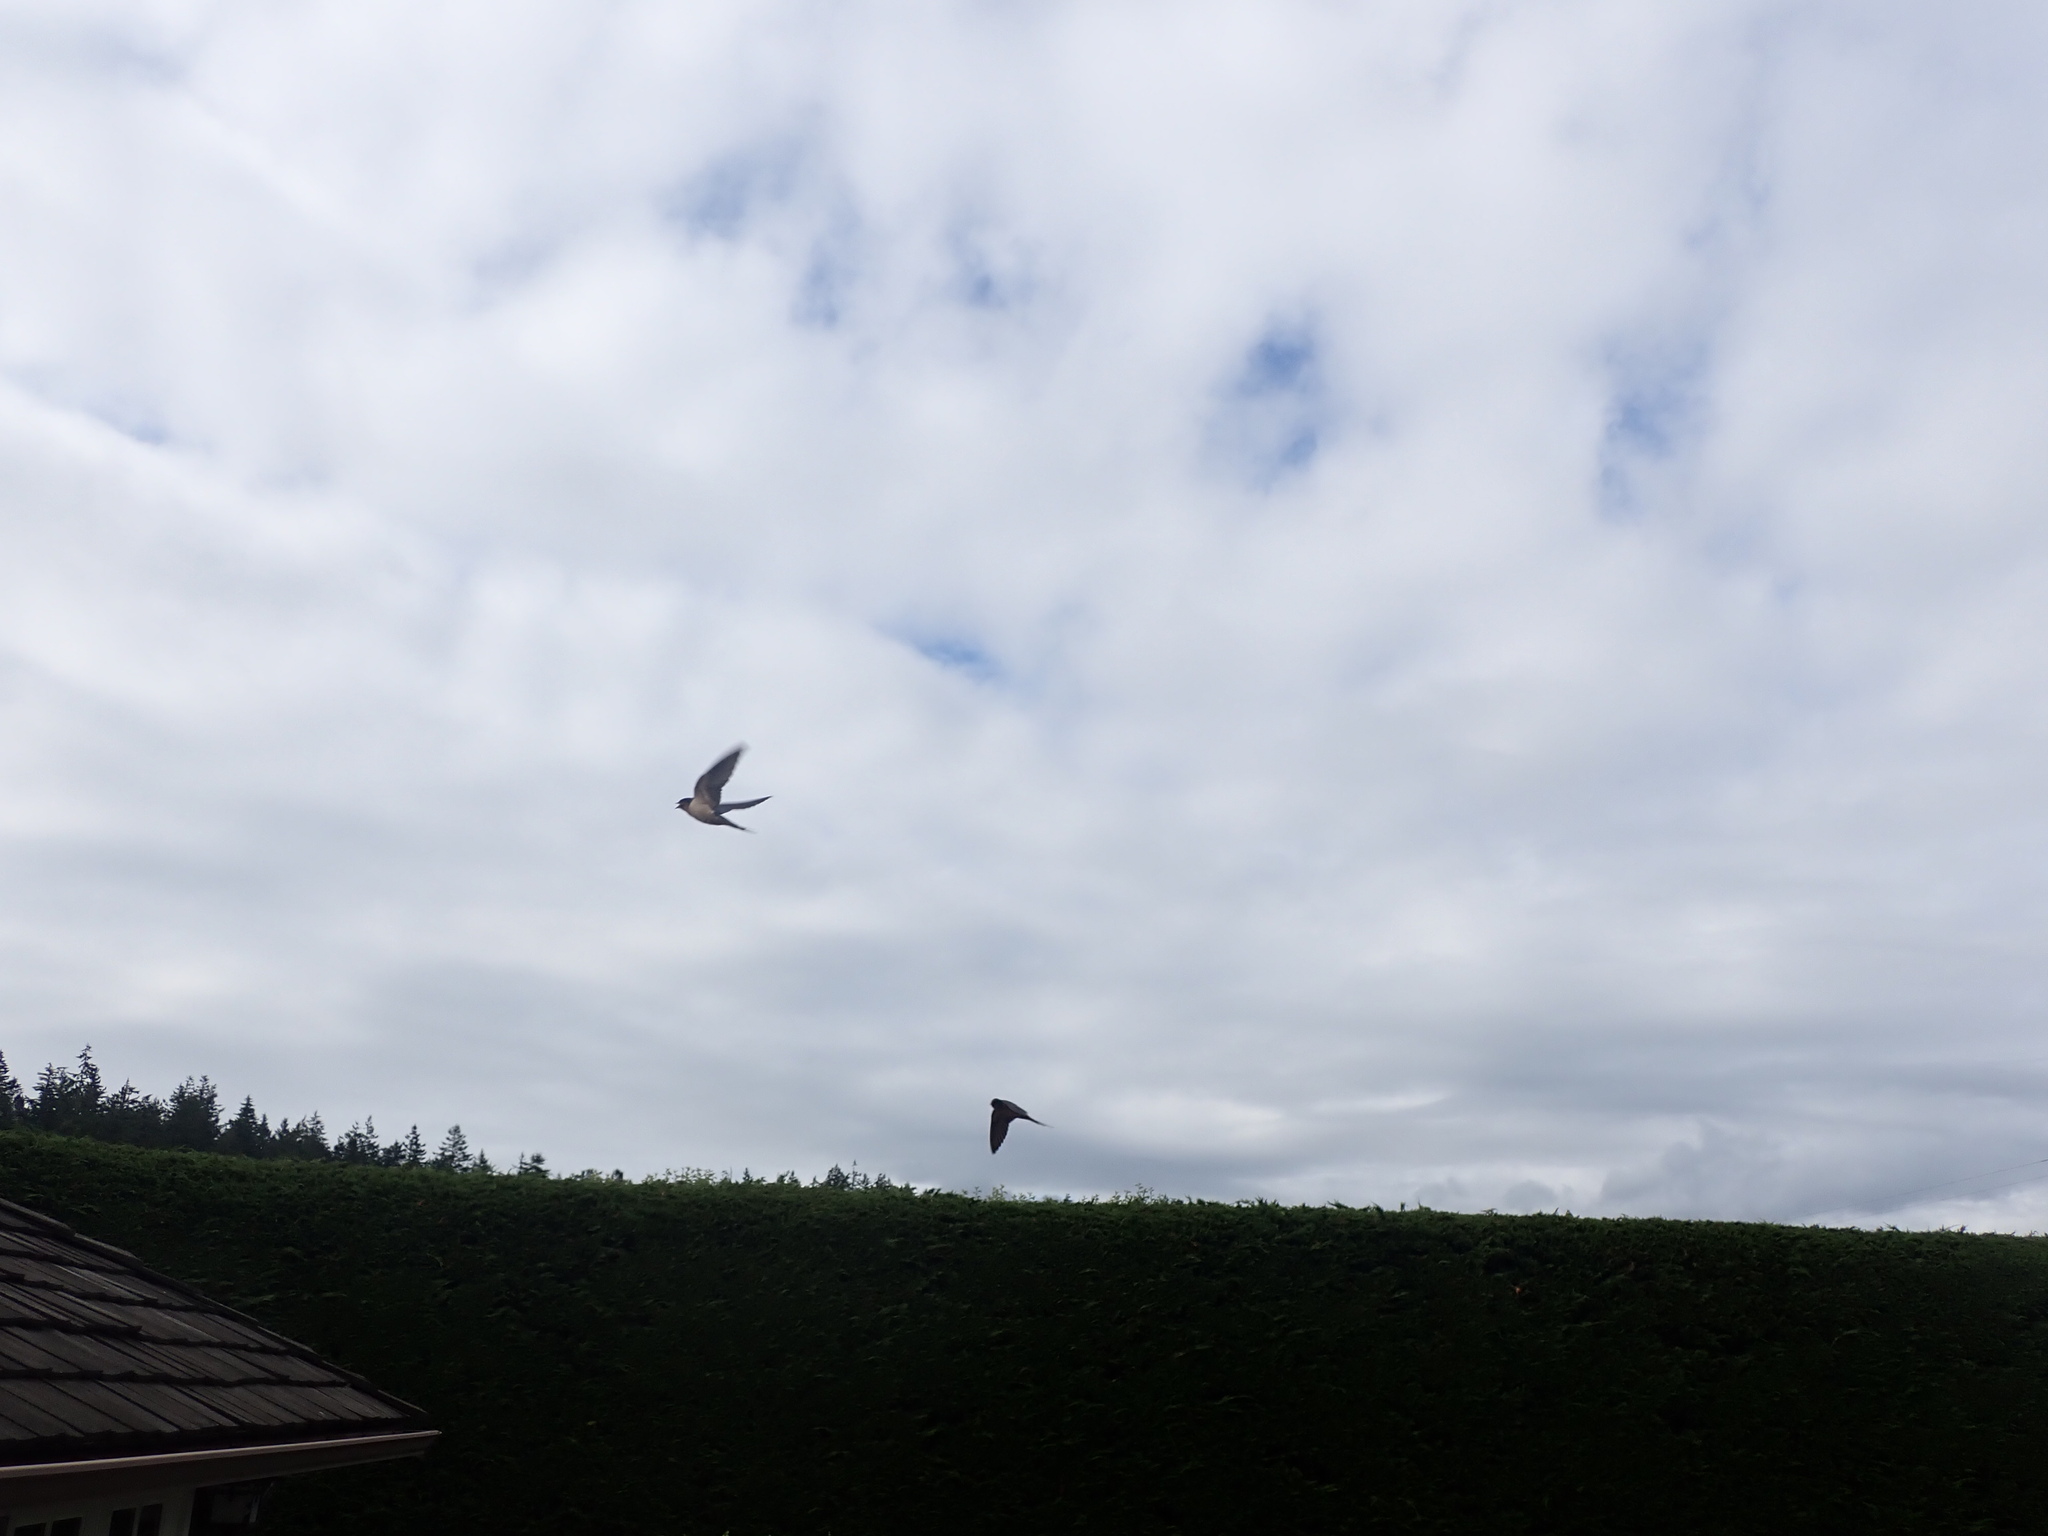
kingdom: Animalia
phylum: Chordata
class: Aves
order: Passeriformes
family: Hirundinidae
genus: Hirundo
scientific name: Hirundo rustica
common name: Barn swallow
